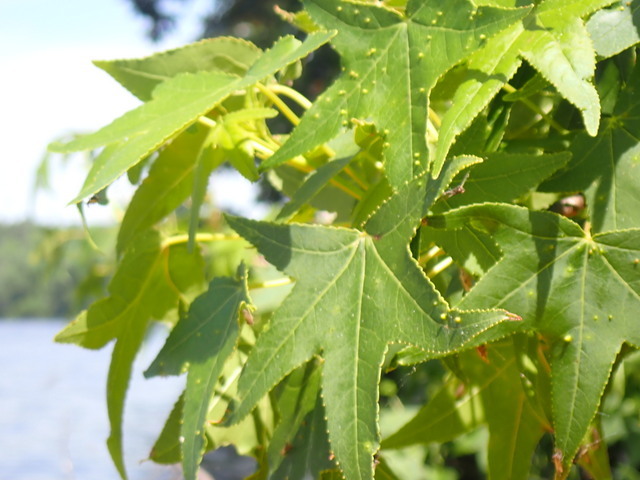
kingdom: Plantae
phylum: Tracheophyta
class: Magnoliopsida
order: Saxifragales
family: Altingiaceae
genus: Liquidambar
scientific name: Liquidambar styraciflua
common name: Sweet gum
